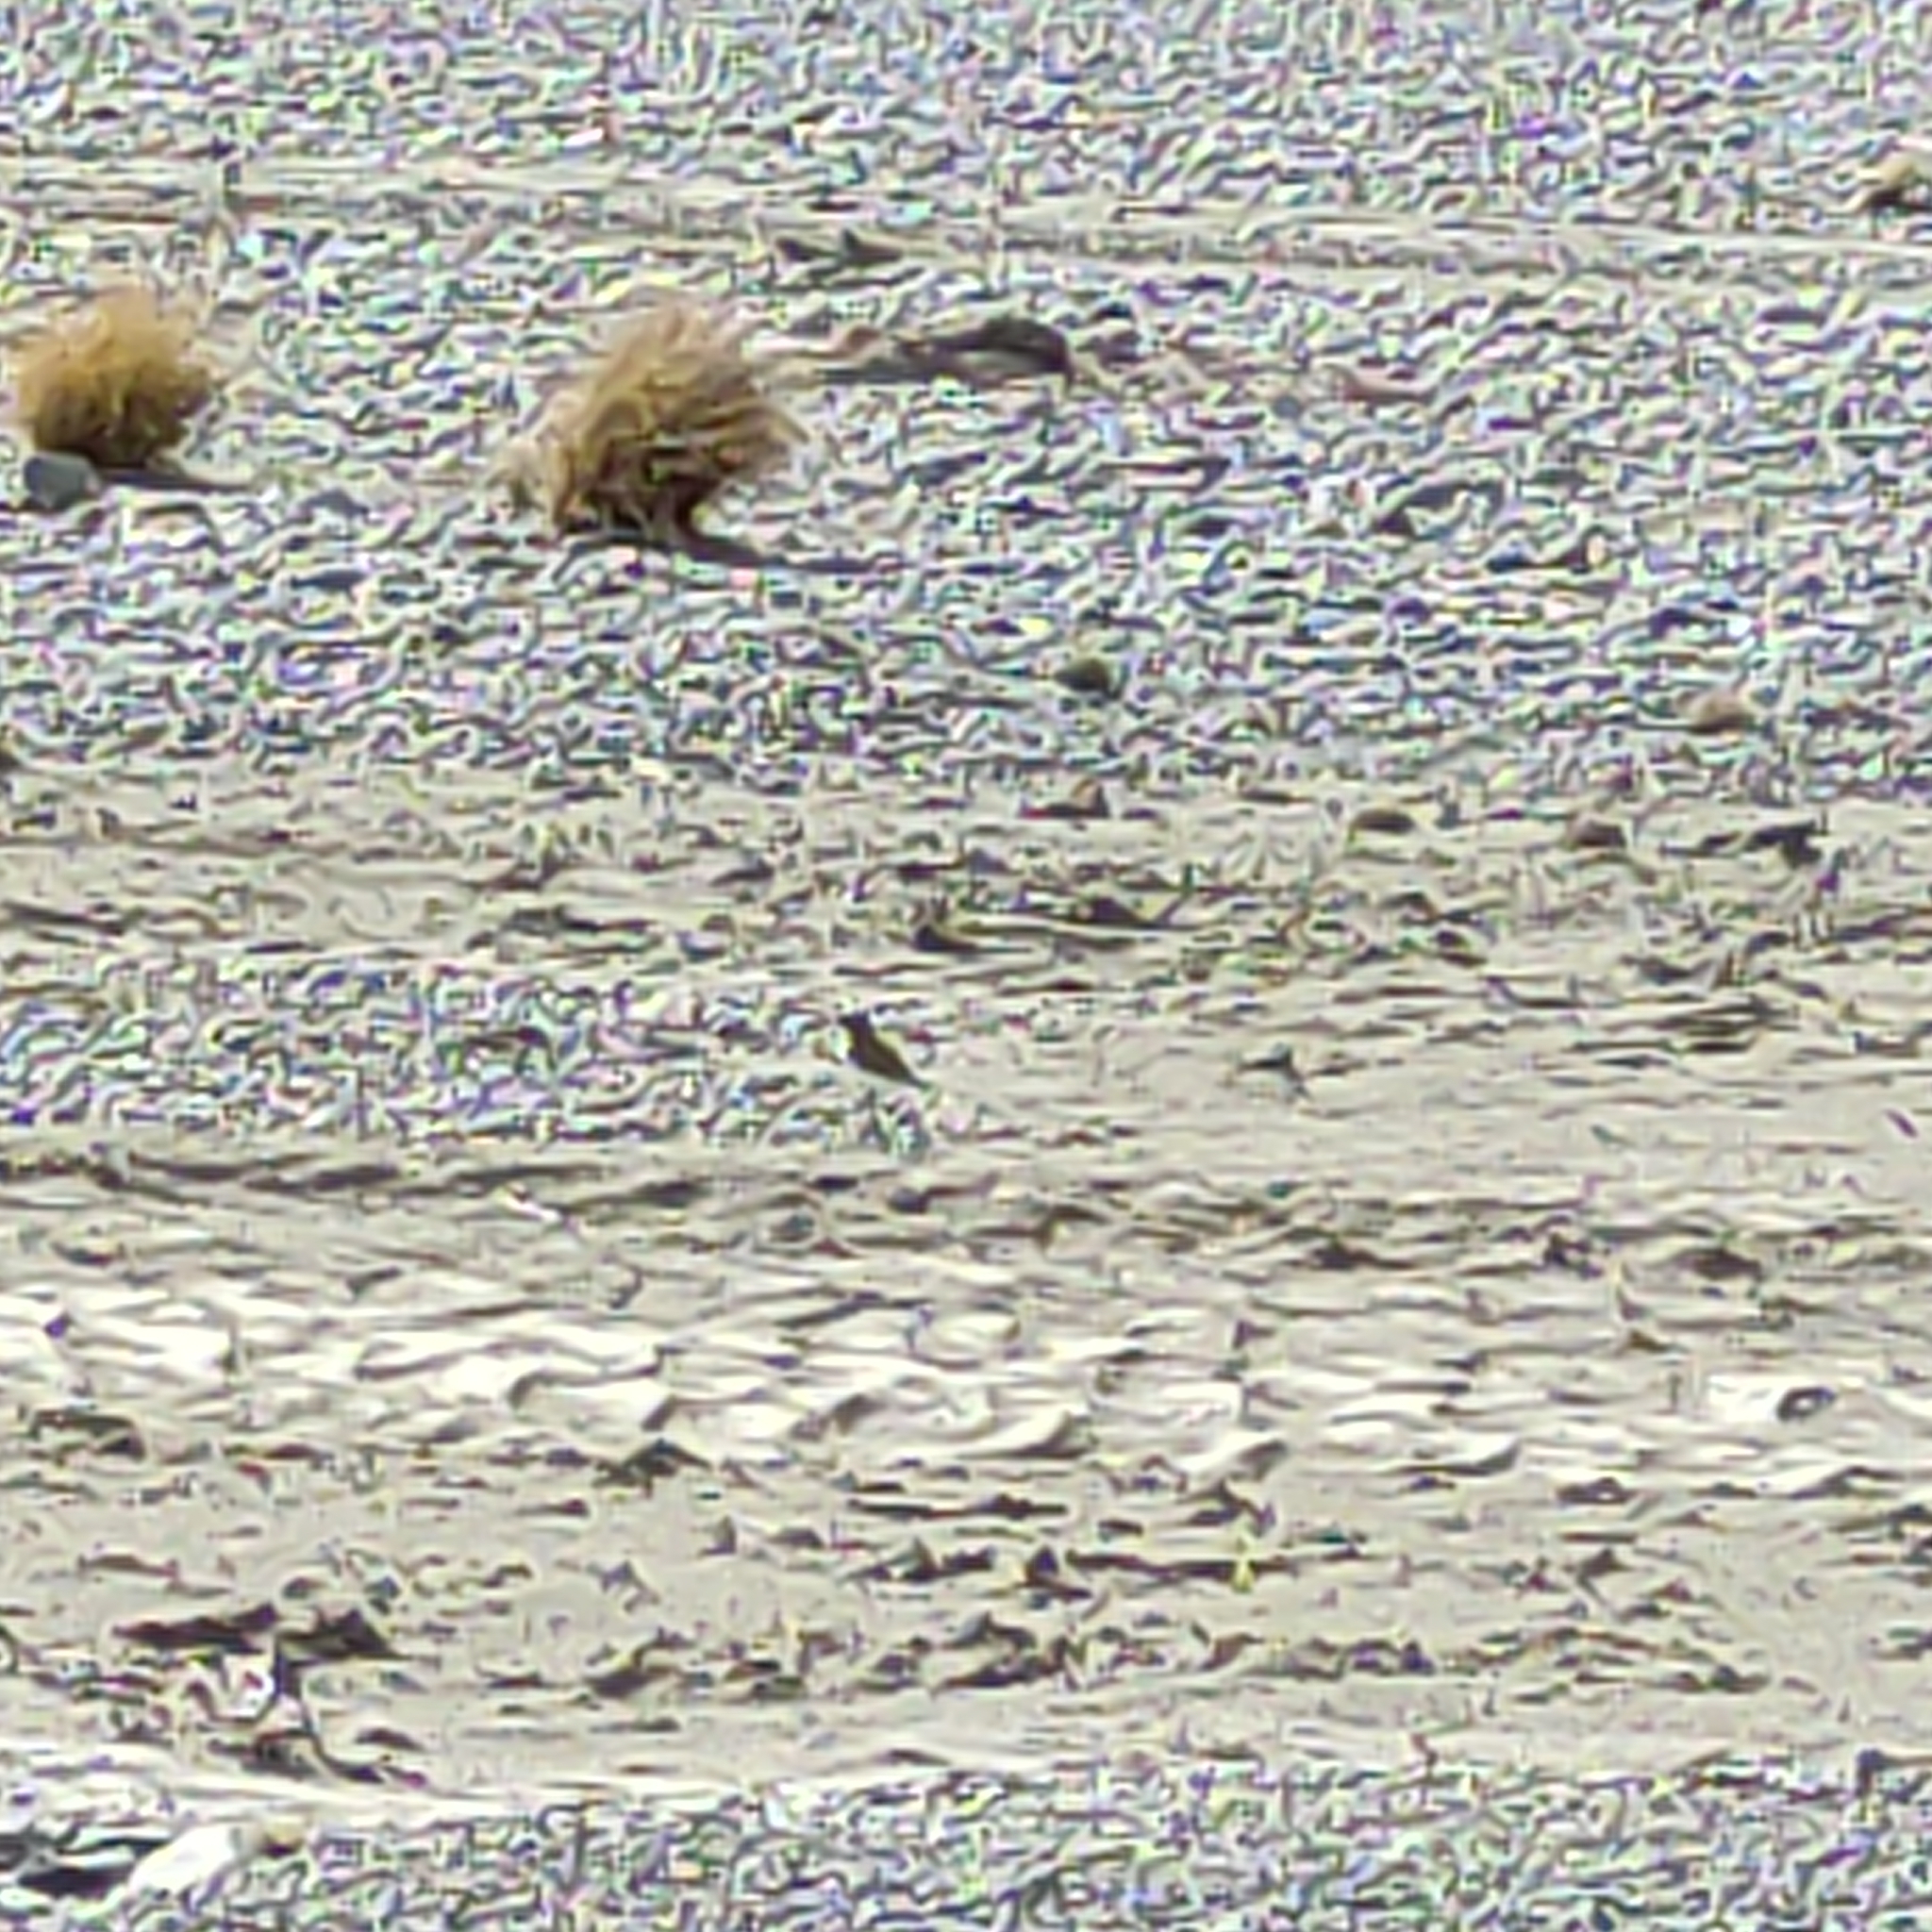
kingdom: Animalia
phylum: Chordata
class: Aves
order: Charadriiformes
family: Charadriidae
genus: Anarhynchus
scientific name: Anarhynchus
